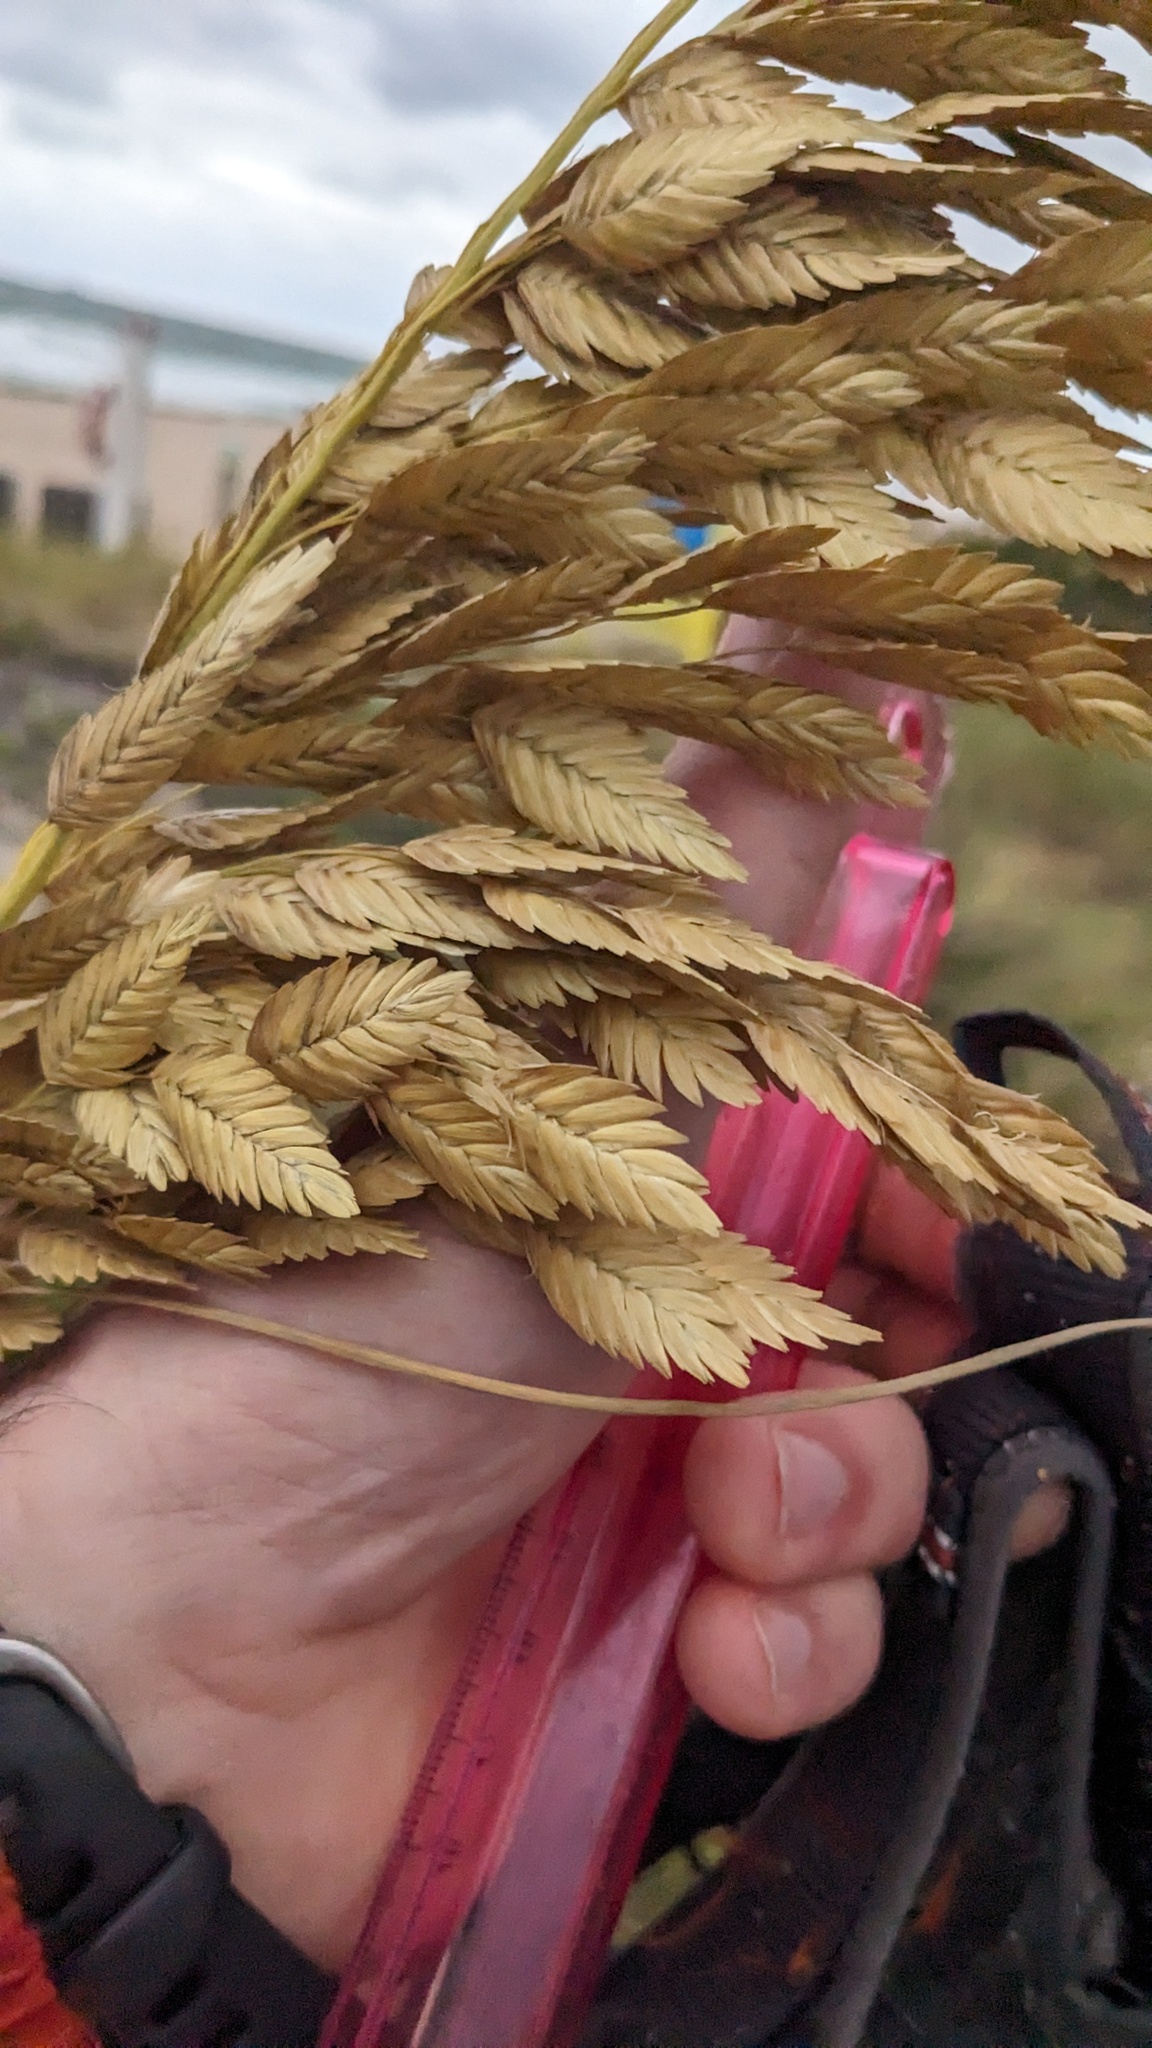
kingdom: Plantae
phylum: Tracheophyta
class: Liliopsida
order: Poales
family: Poaceae
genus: Uniola
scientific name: Uniola paniculata
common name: Seaside-oats
